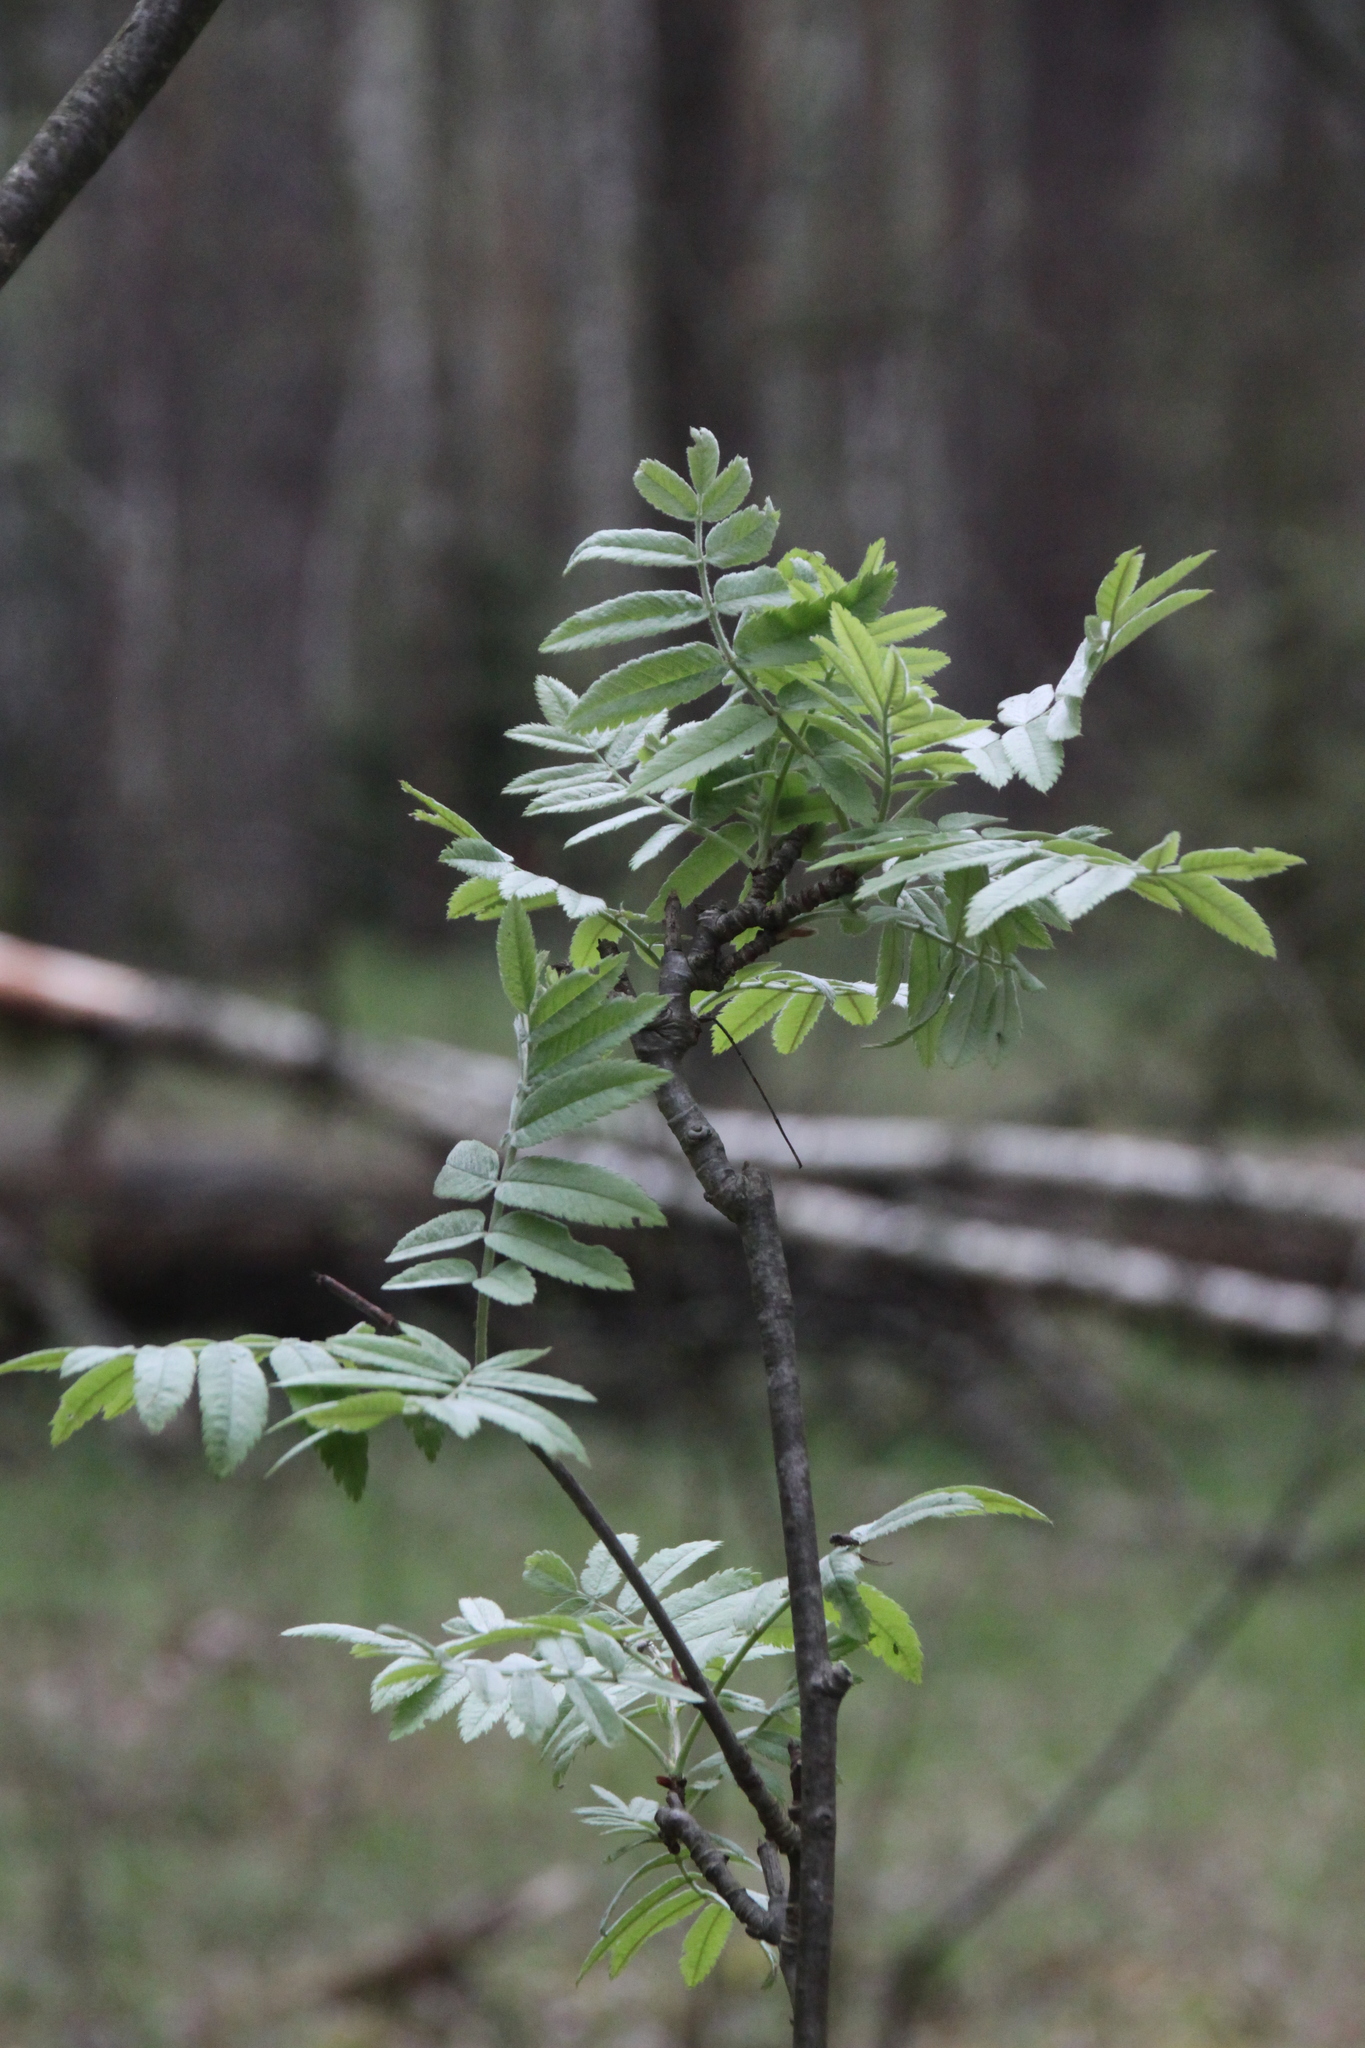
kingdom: Plantae
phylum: Tracheophyta
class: Magnoliopsida
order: Rosales
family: Rosaceae
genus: Sorbus
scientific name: Sorbus aucuparia
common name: Rowan
